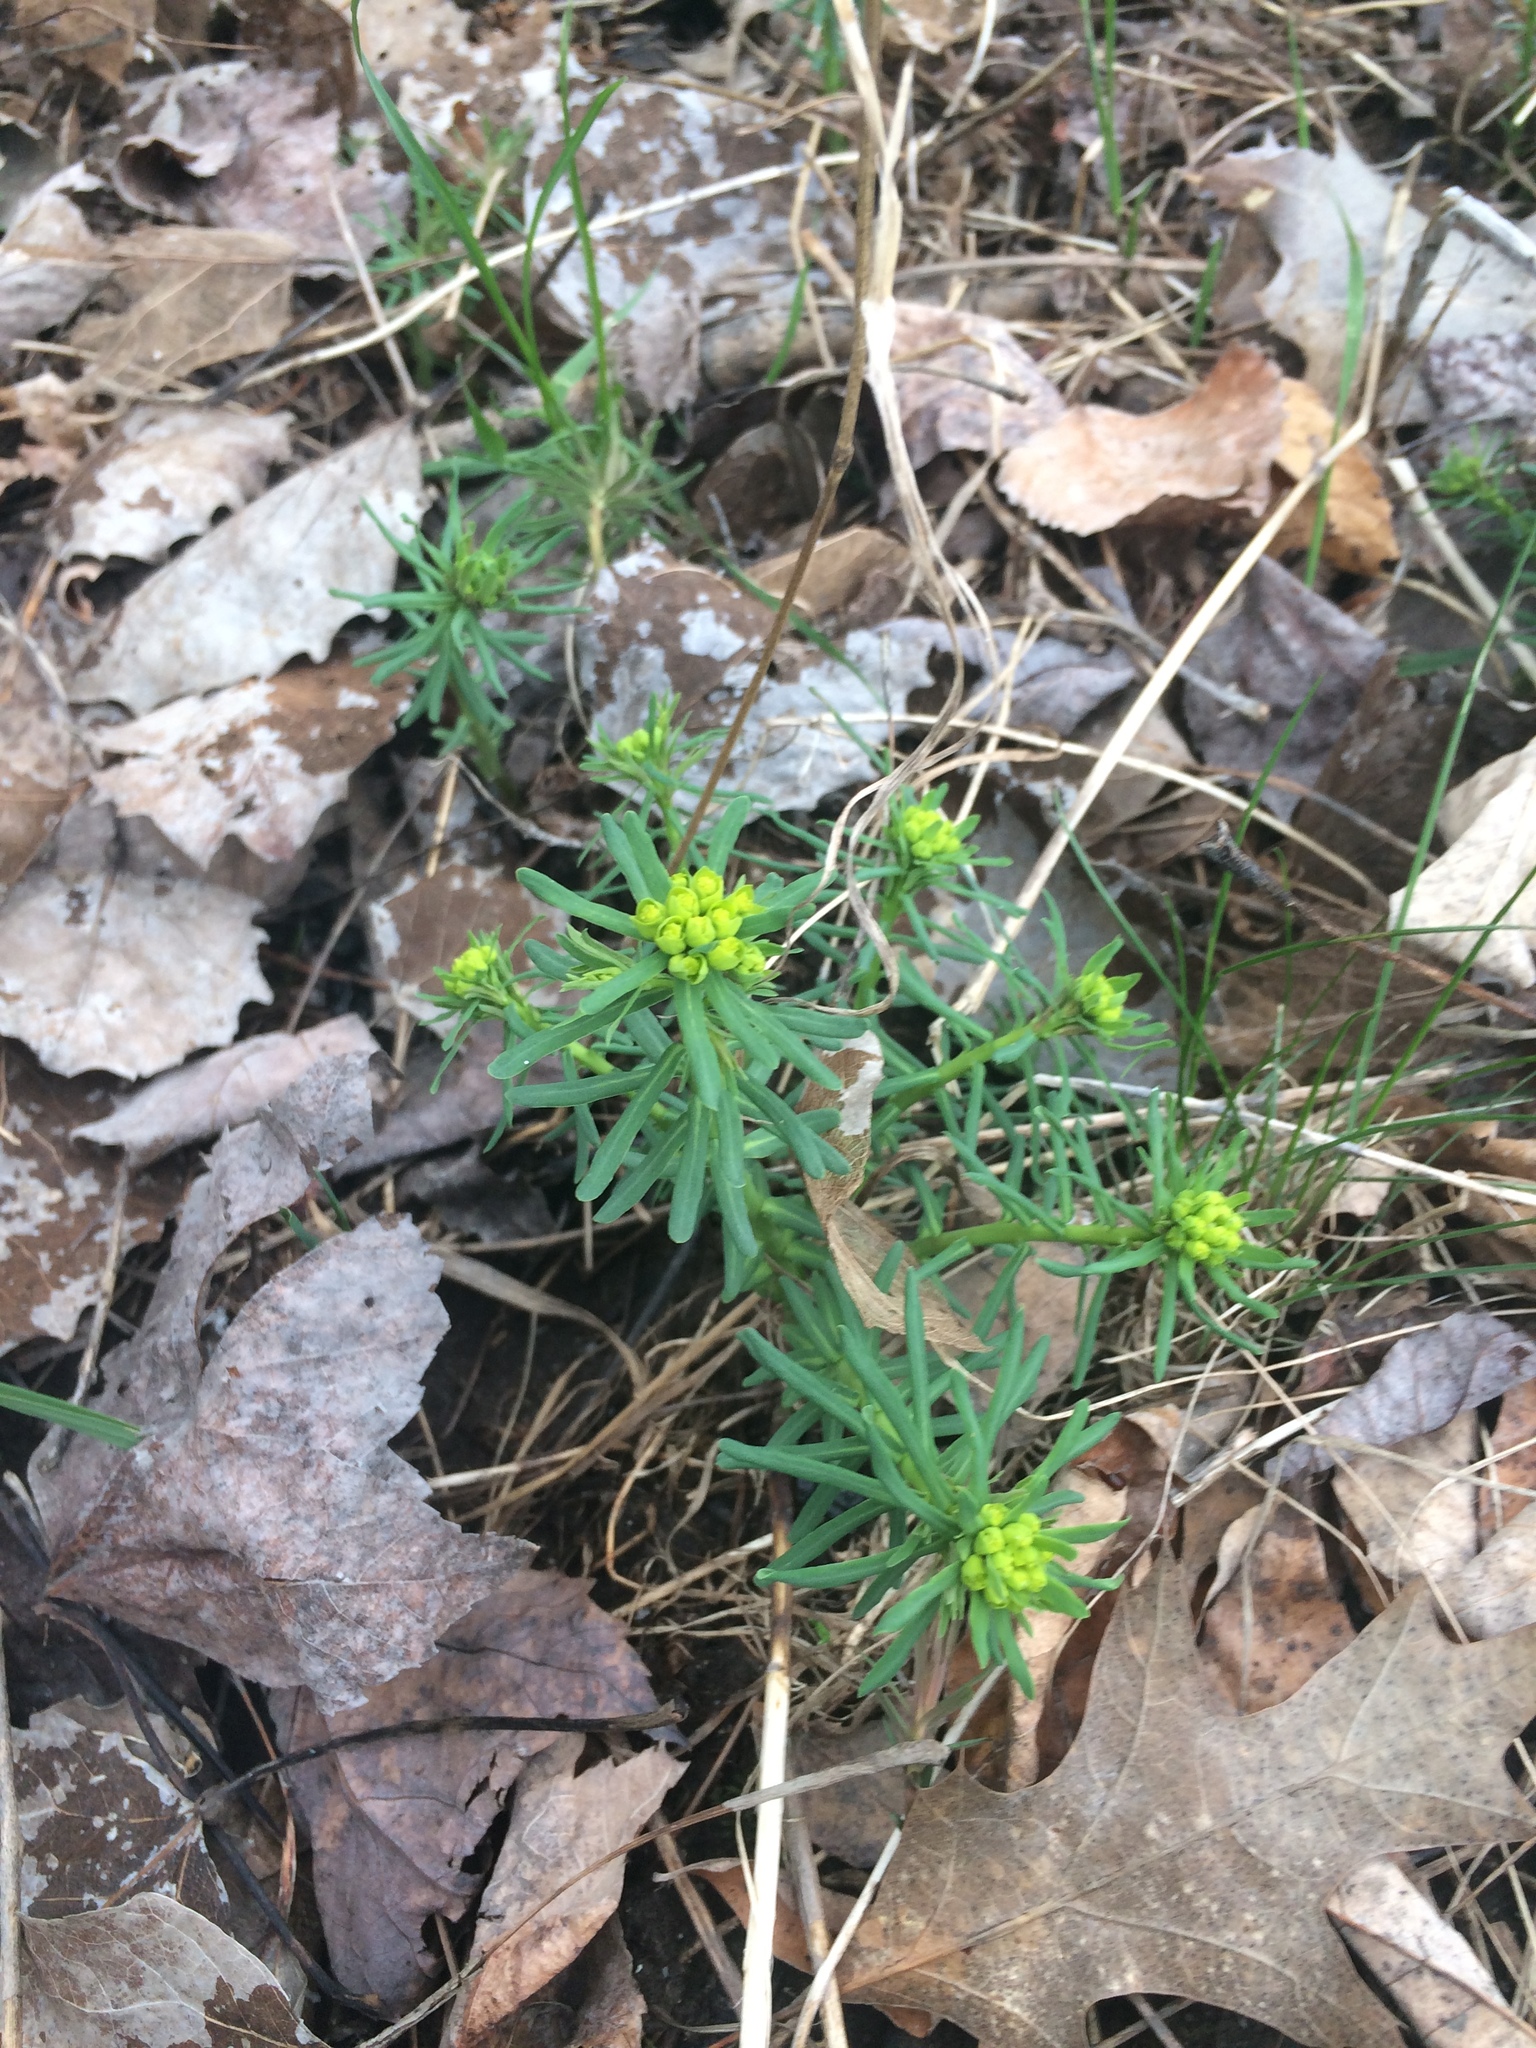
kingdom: Plantae
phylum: Tracheophyta
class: Magnoliopsida
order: Malpighiales
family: Euphorbiaceae
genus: Euphorbia
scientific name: Euphorbia cyparissias
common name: Cypress spurge
